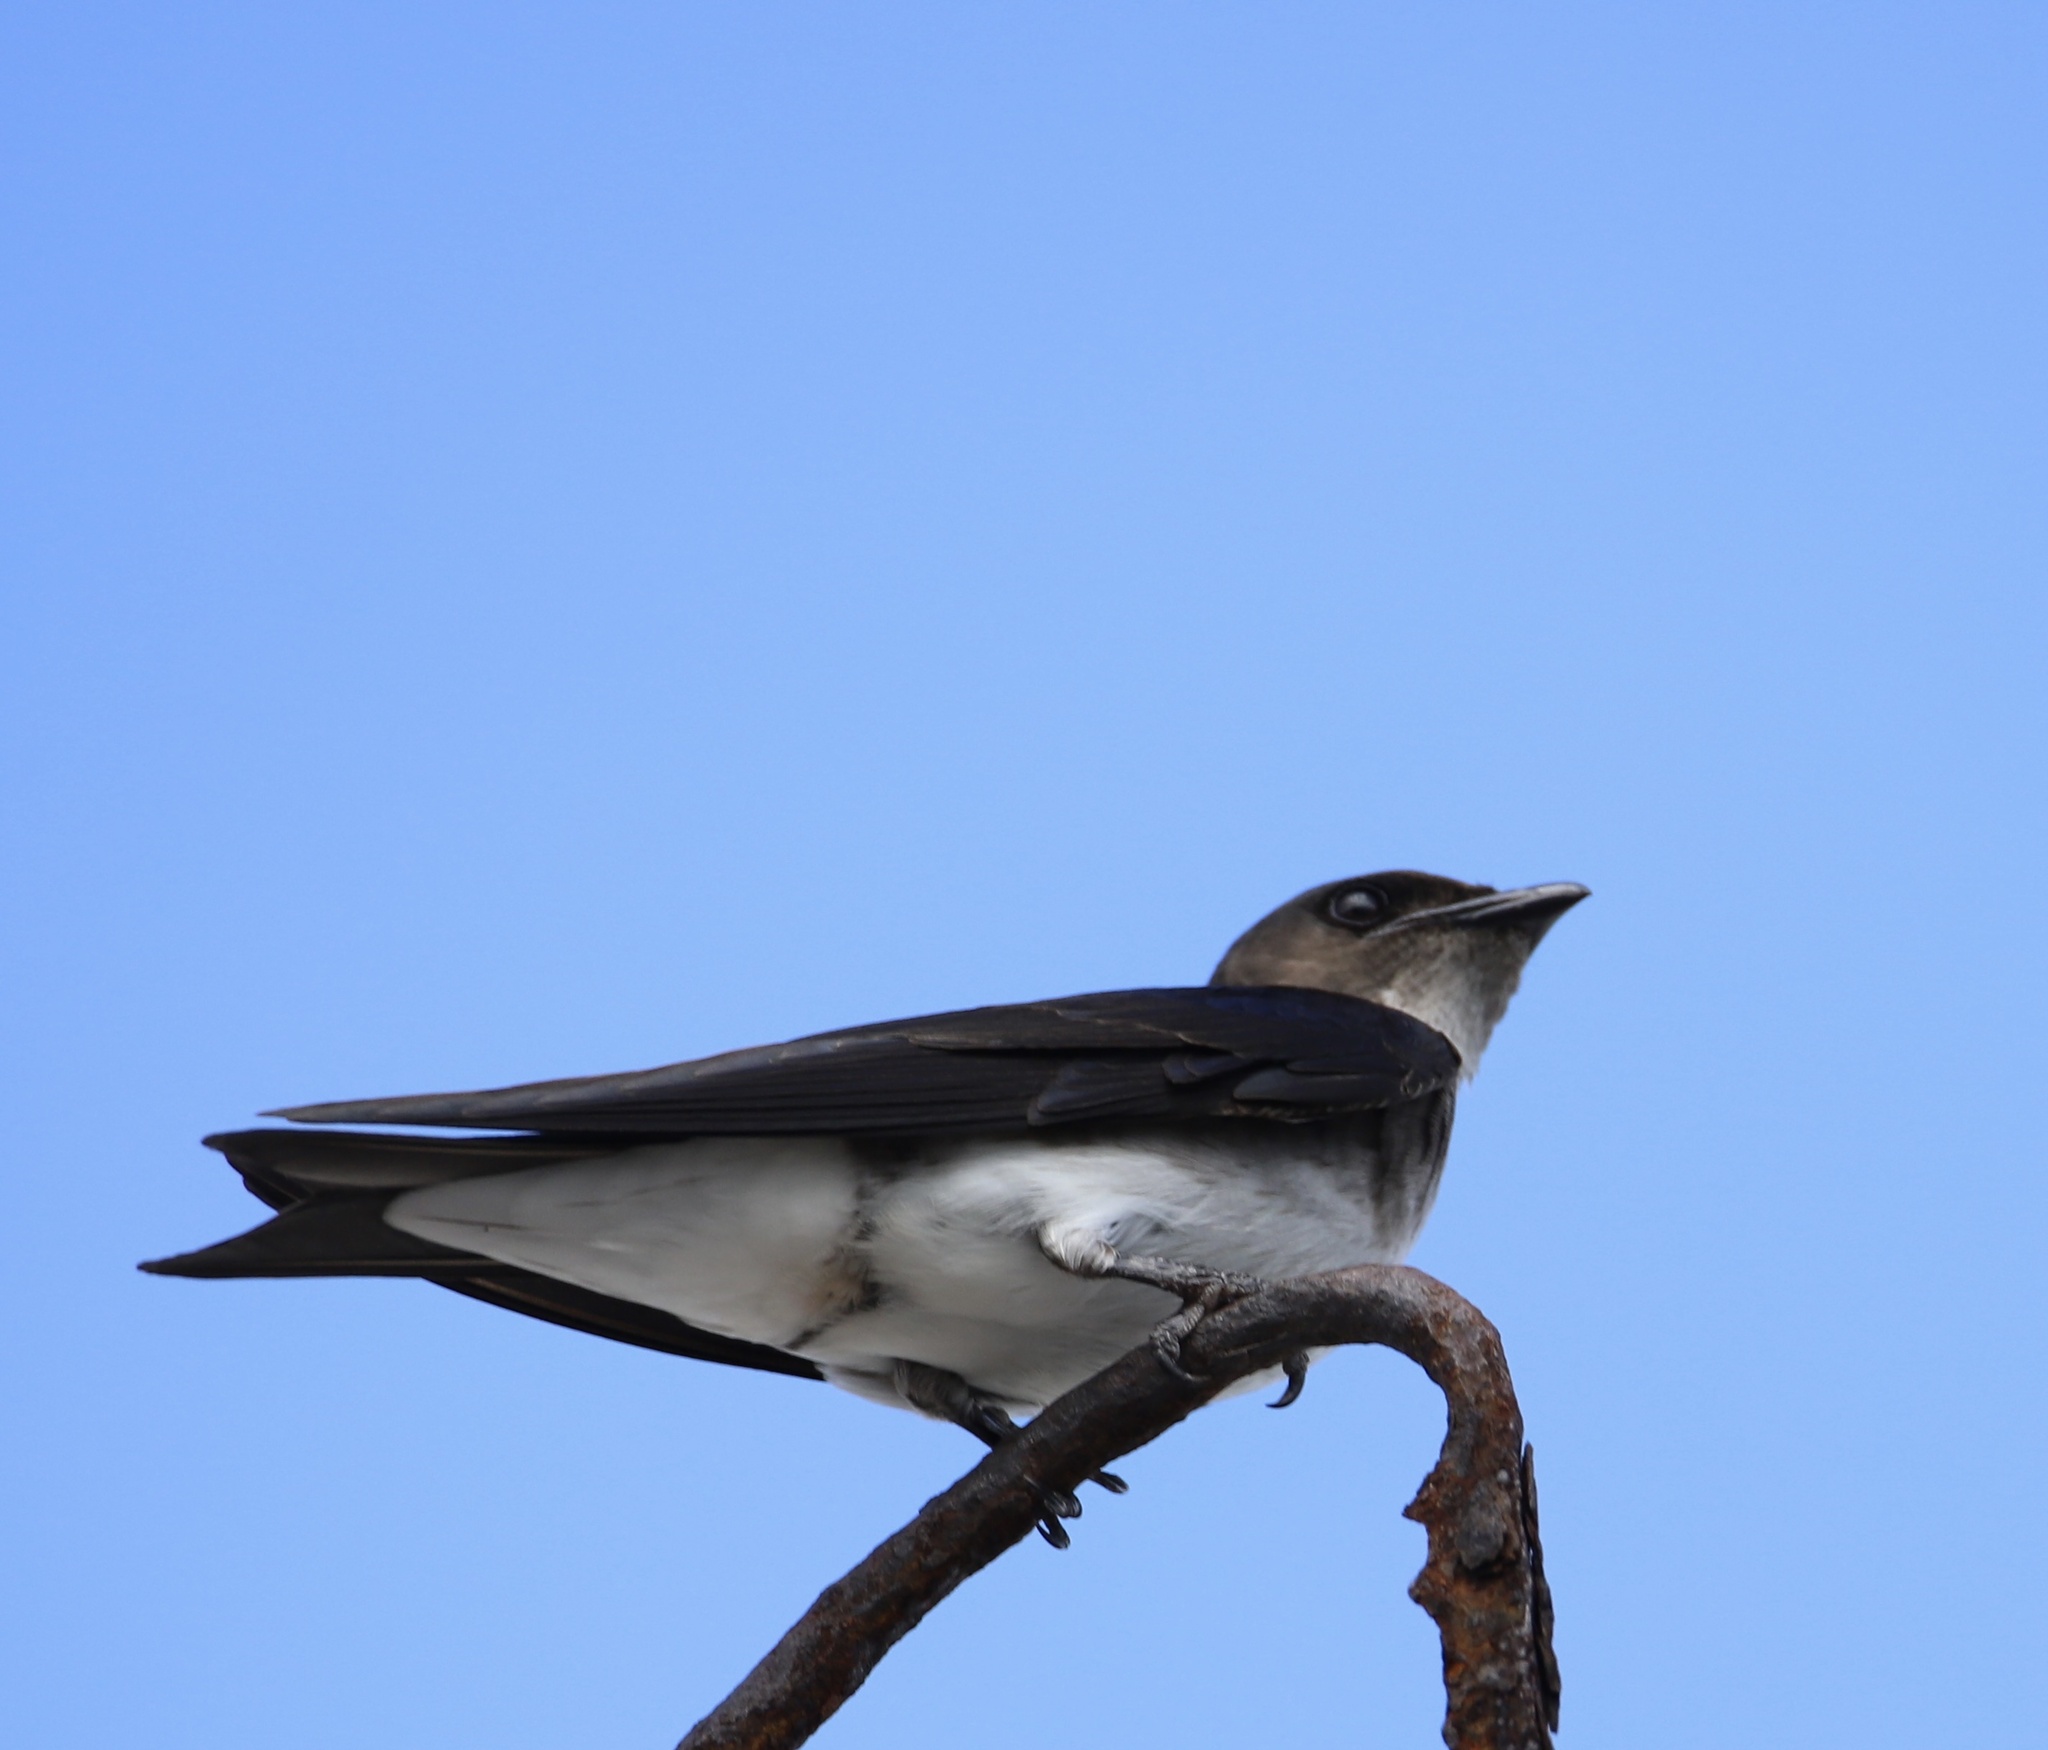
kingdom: Animalia
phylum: Chordata
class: Aves
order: Passeriformes
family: Hirundinidae
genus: Progne
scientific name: Progne chalybea
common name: Grey-breasted martin
